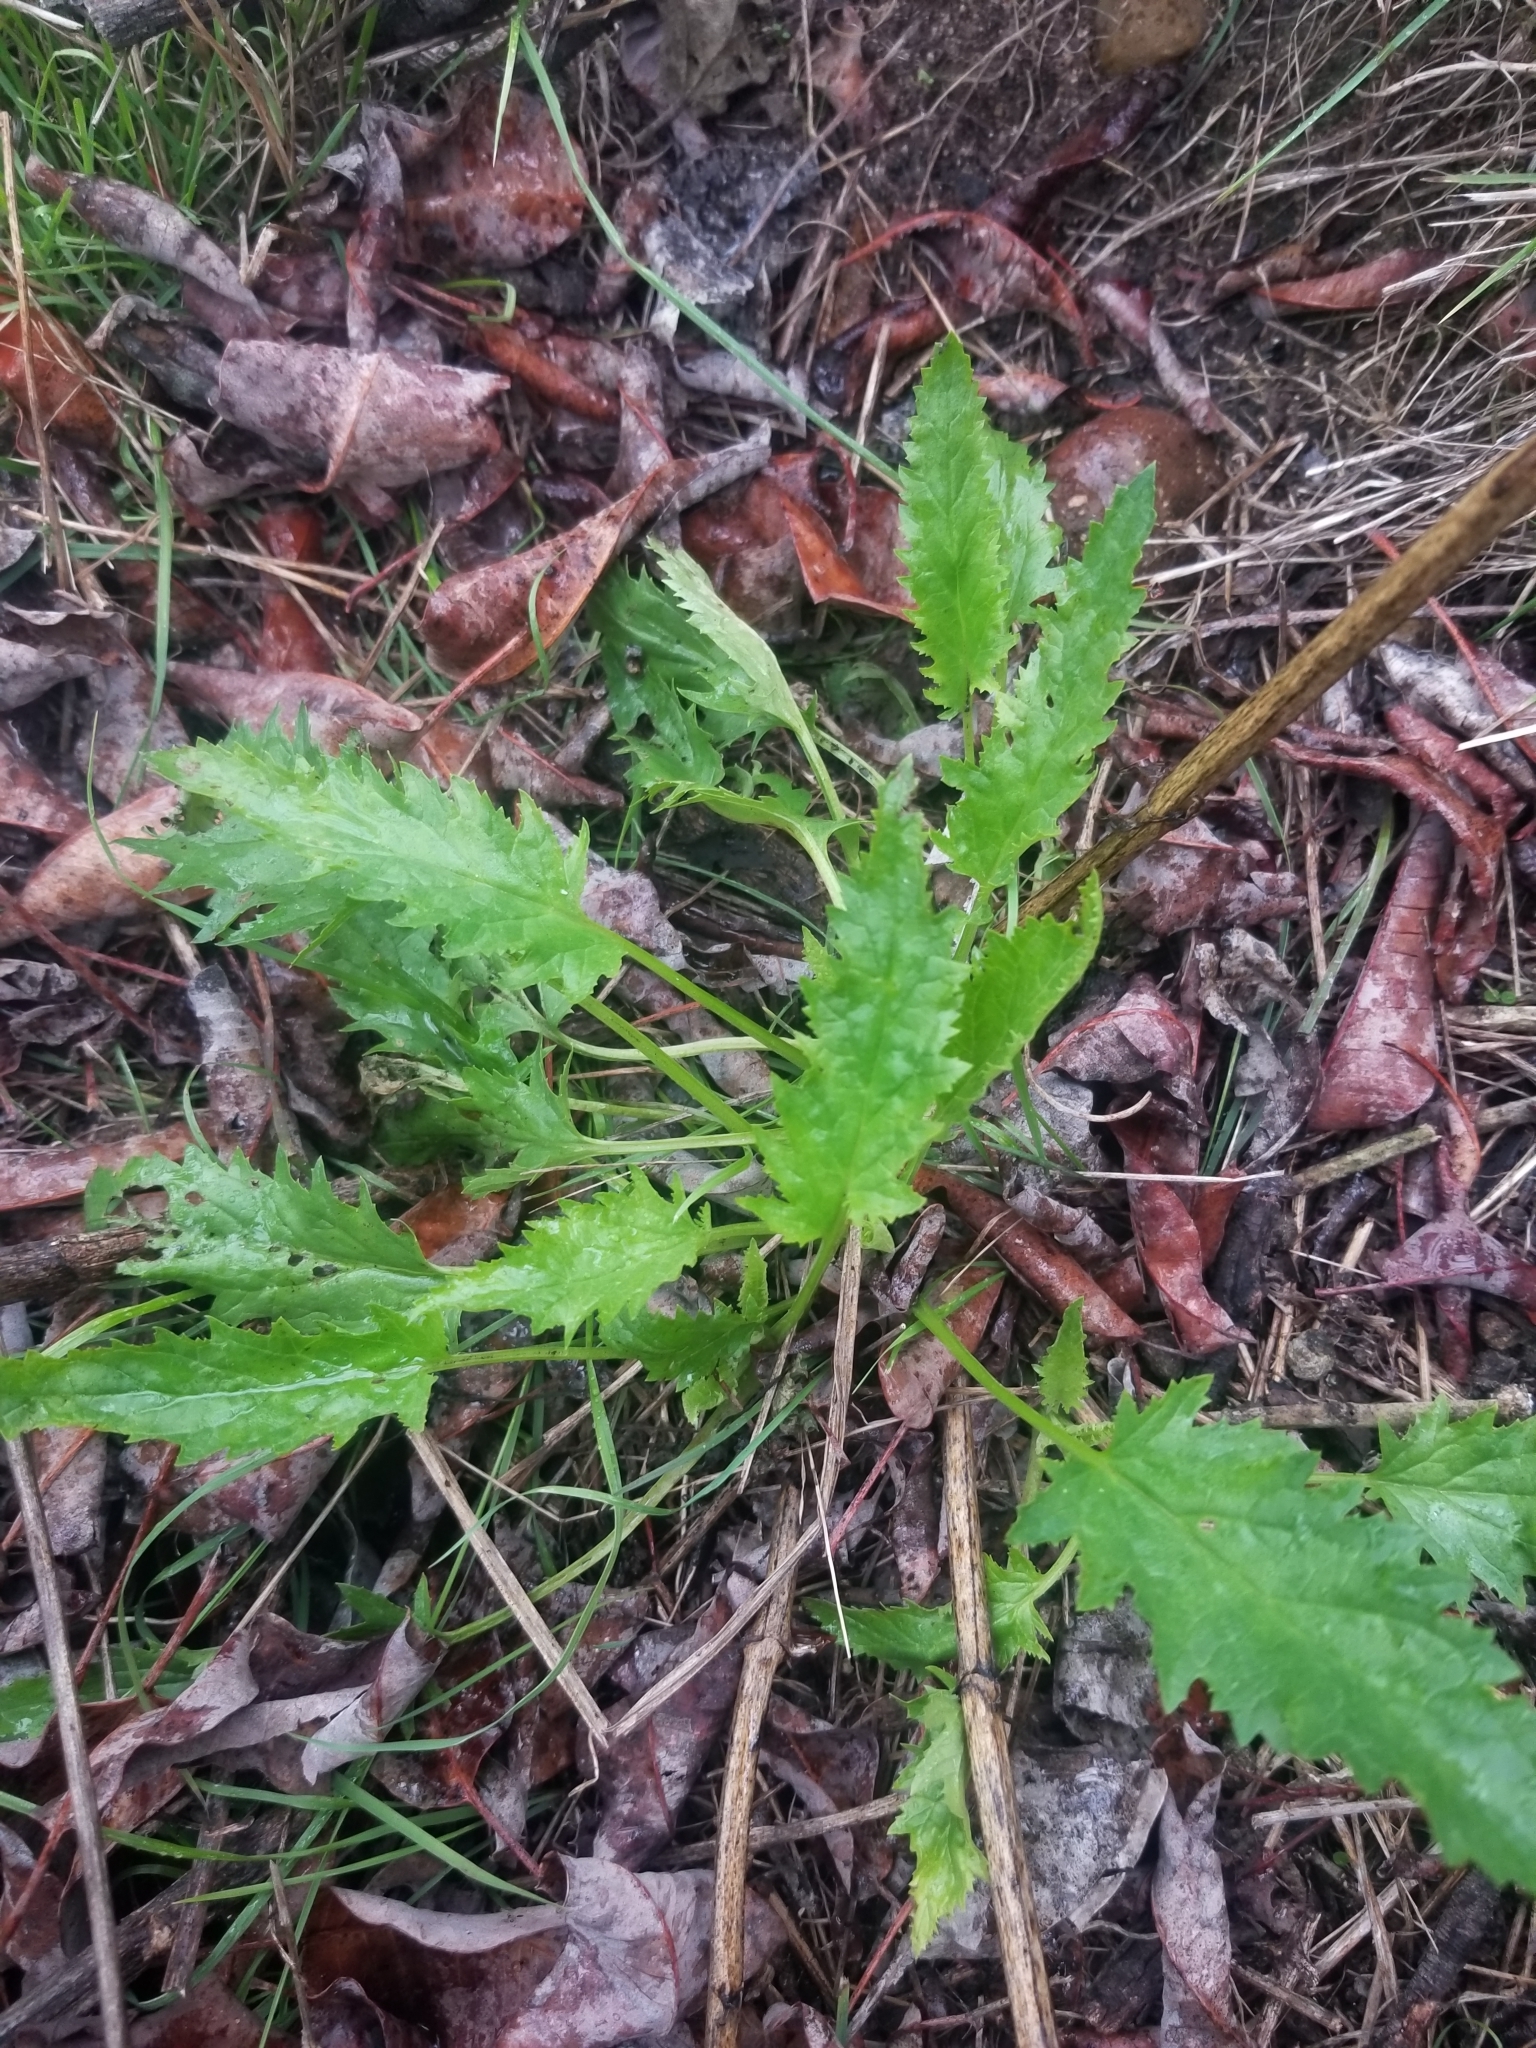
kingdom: Plantae
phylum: Tracheophyta
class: Magnoliopsida
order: Lamiales
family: Scrophulariaceae
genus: Scrophularia
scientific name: Scrophularia californica
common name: California figwort
